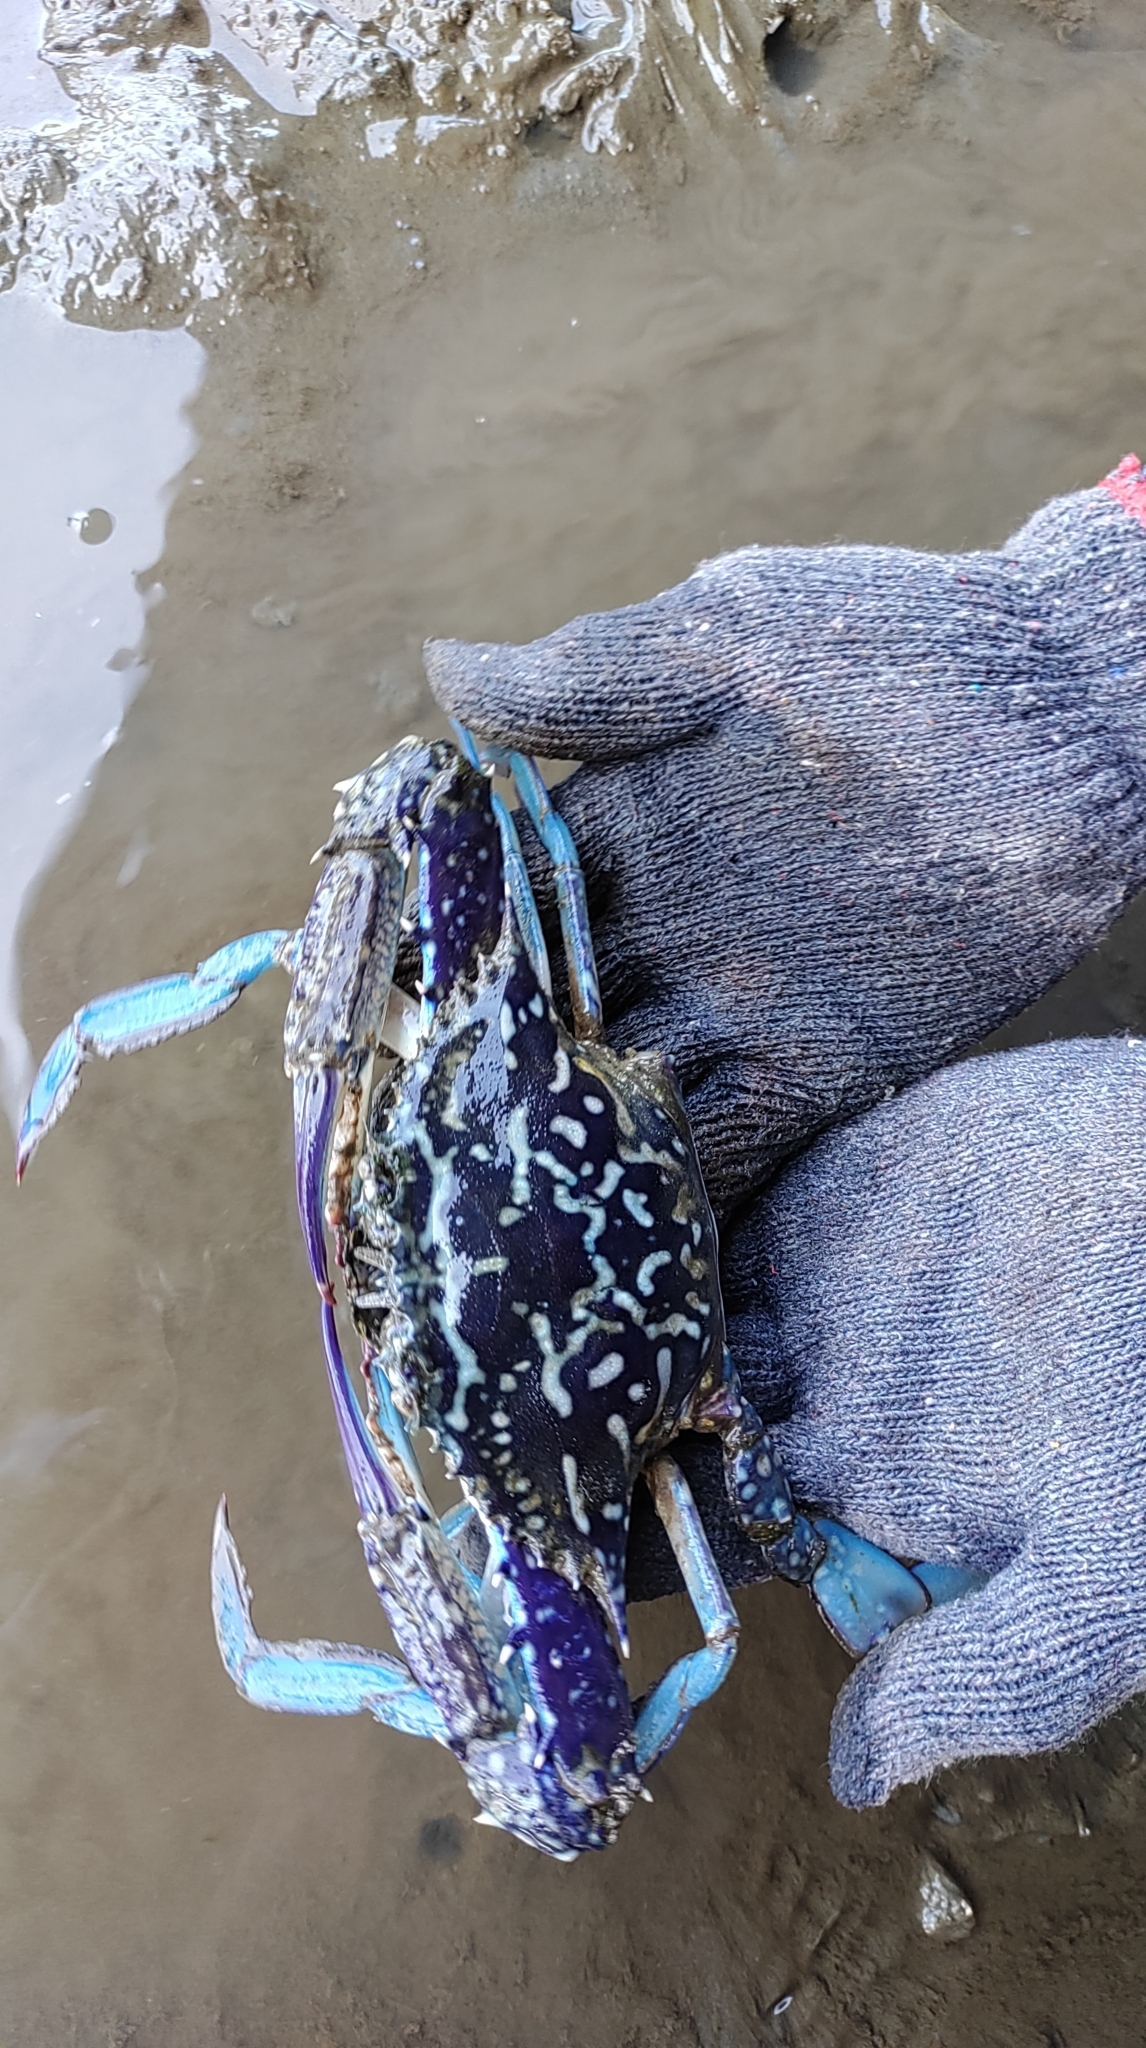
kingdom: Animalia
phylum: Arthropoda
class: Malacostraca
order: Decapoda
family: Portunidae
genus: Portunus
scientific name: Portunus pelagicus
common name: Blue swimming crab
